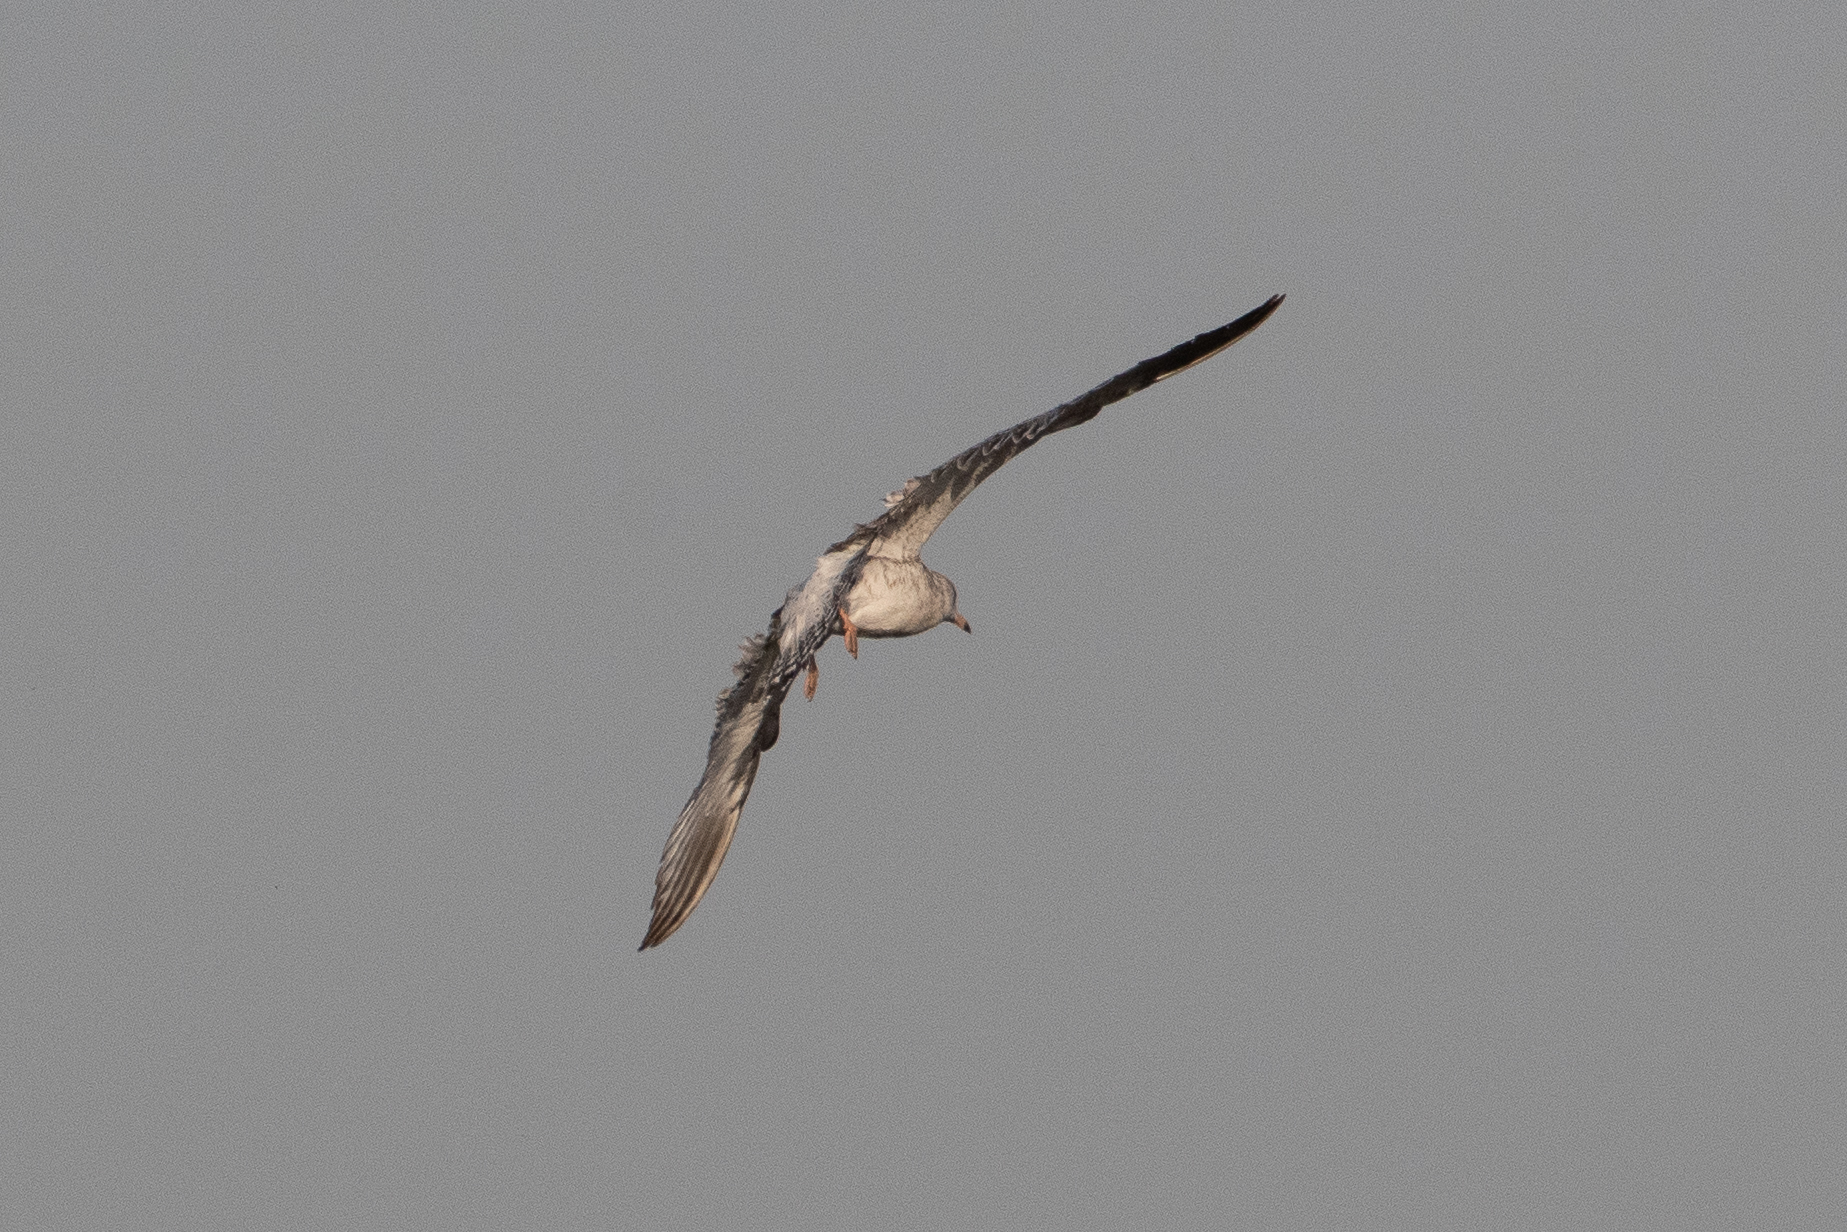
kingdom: Animalia
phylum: Chordata
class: Aves
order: Charadriiformes
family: Laridae
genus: Larus
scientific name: Larus delawarensis
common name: Ring-billed gull
